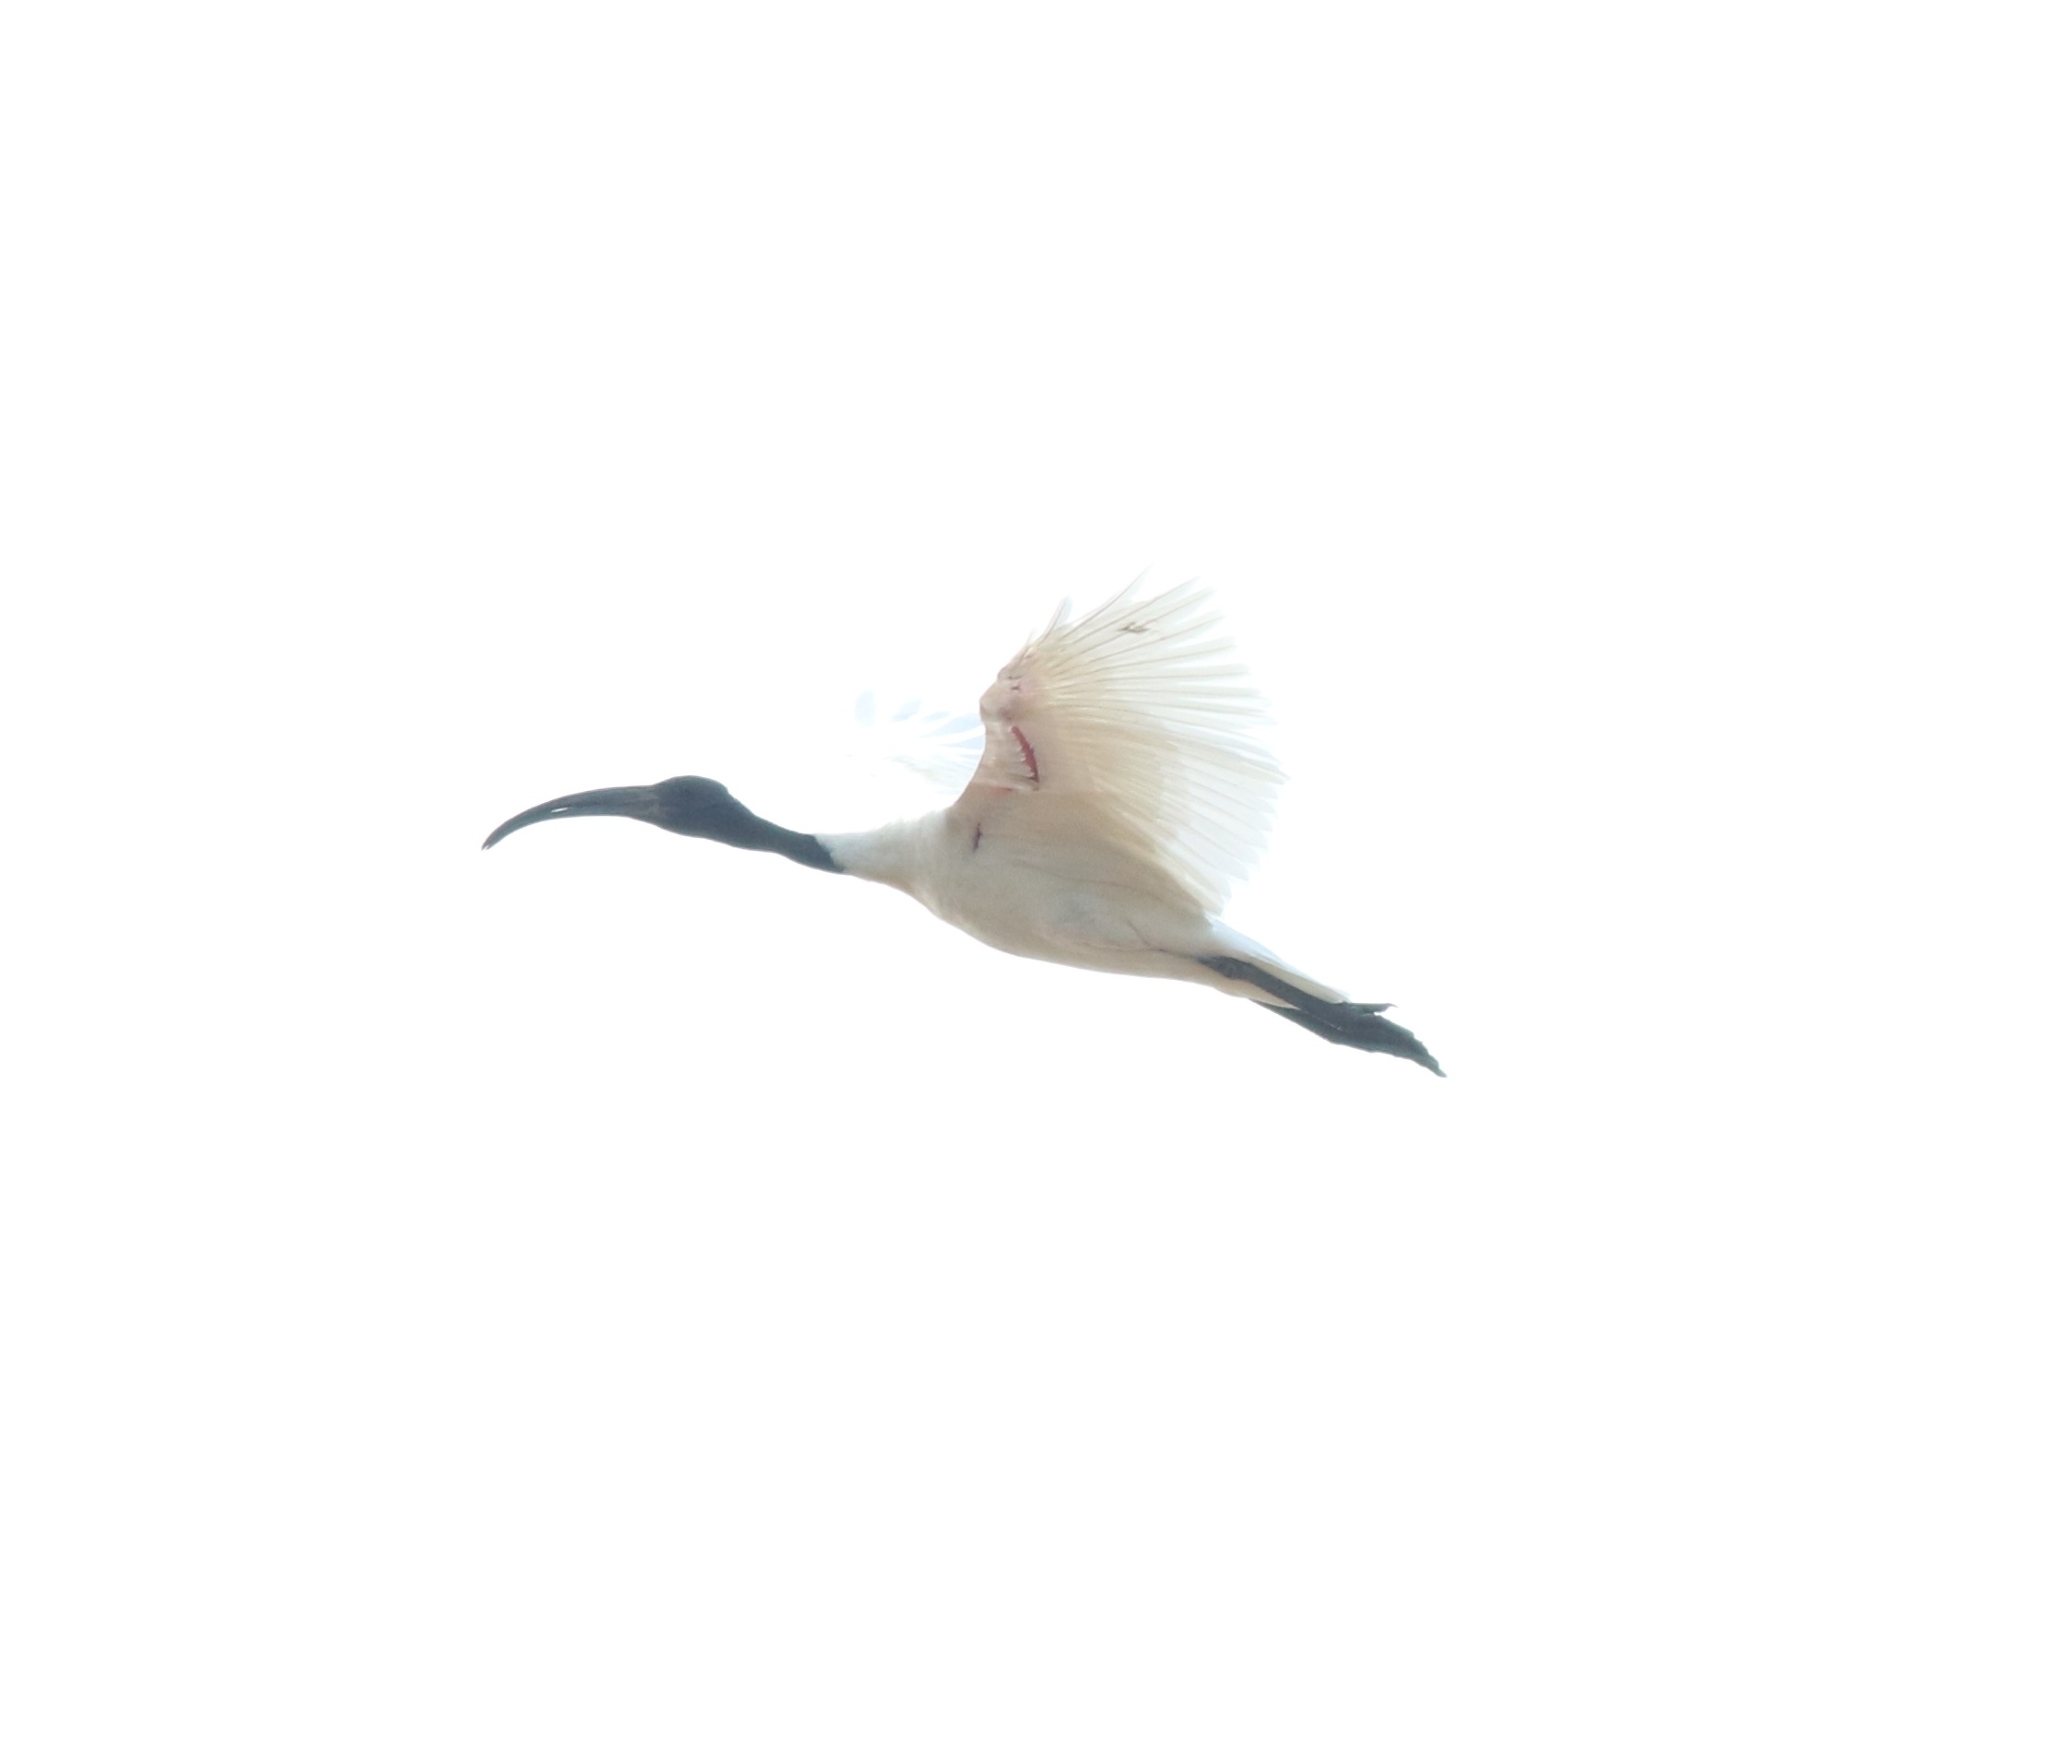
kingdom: Animalia
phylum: Chordata
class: Aves
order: Pelecaniformes
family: Threskiornithidae
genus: Threskiornis
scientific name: Threskiornis melanocephalus
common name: Black-headed ibis
